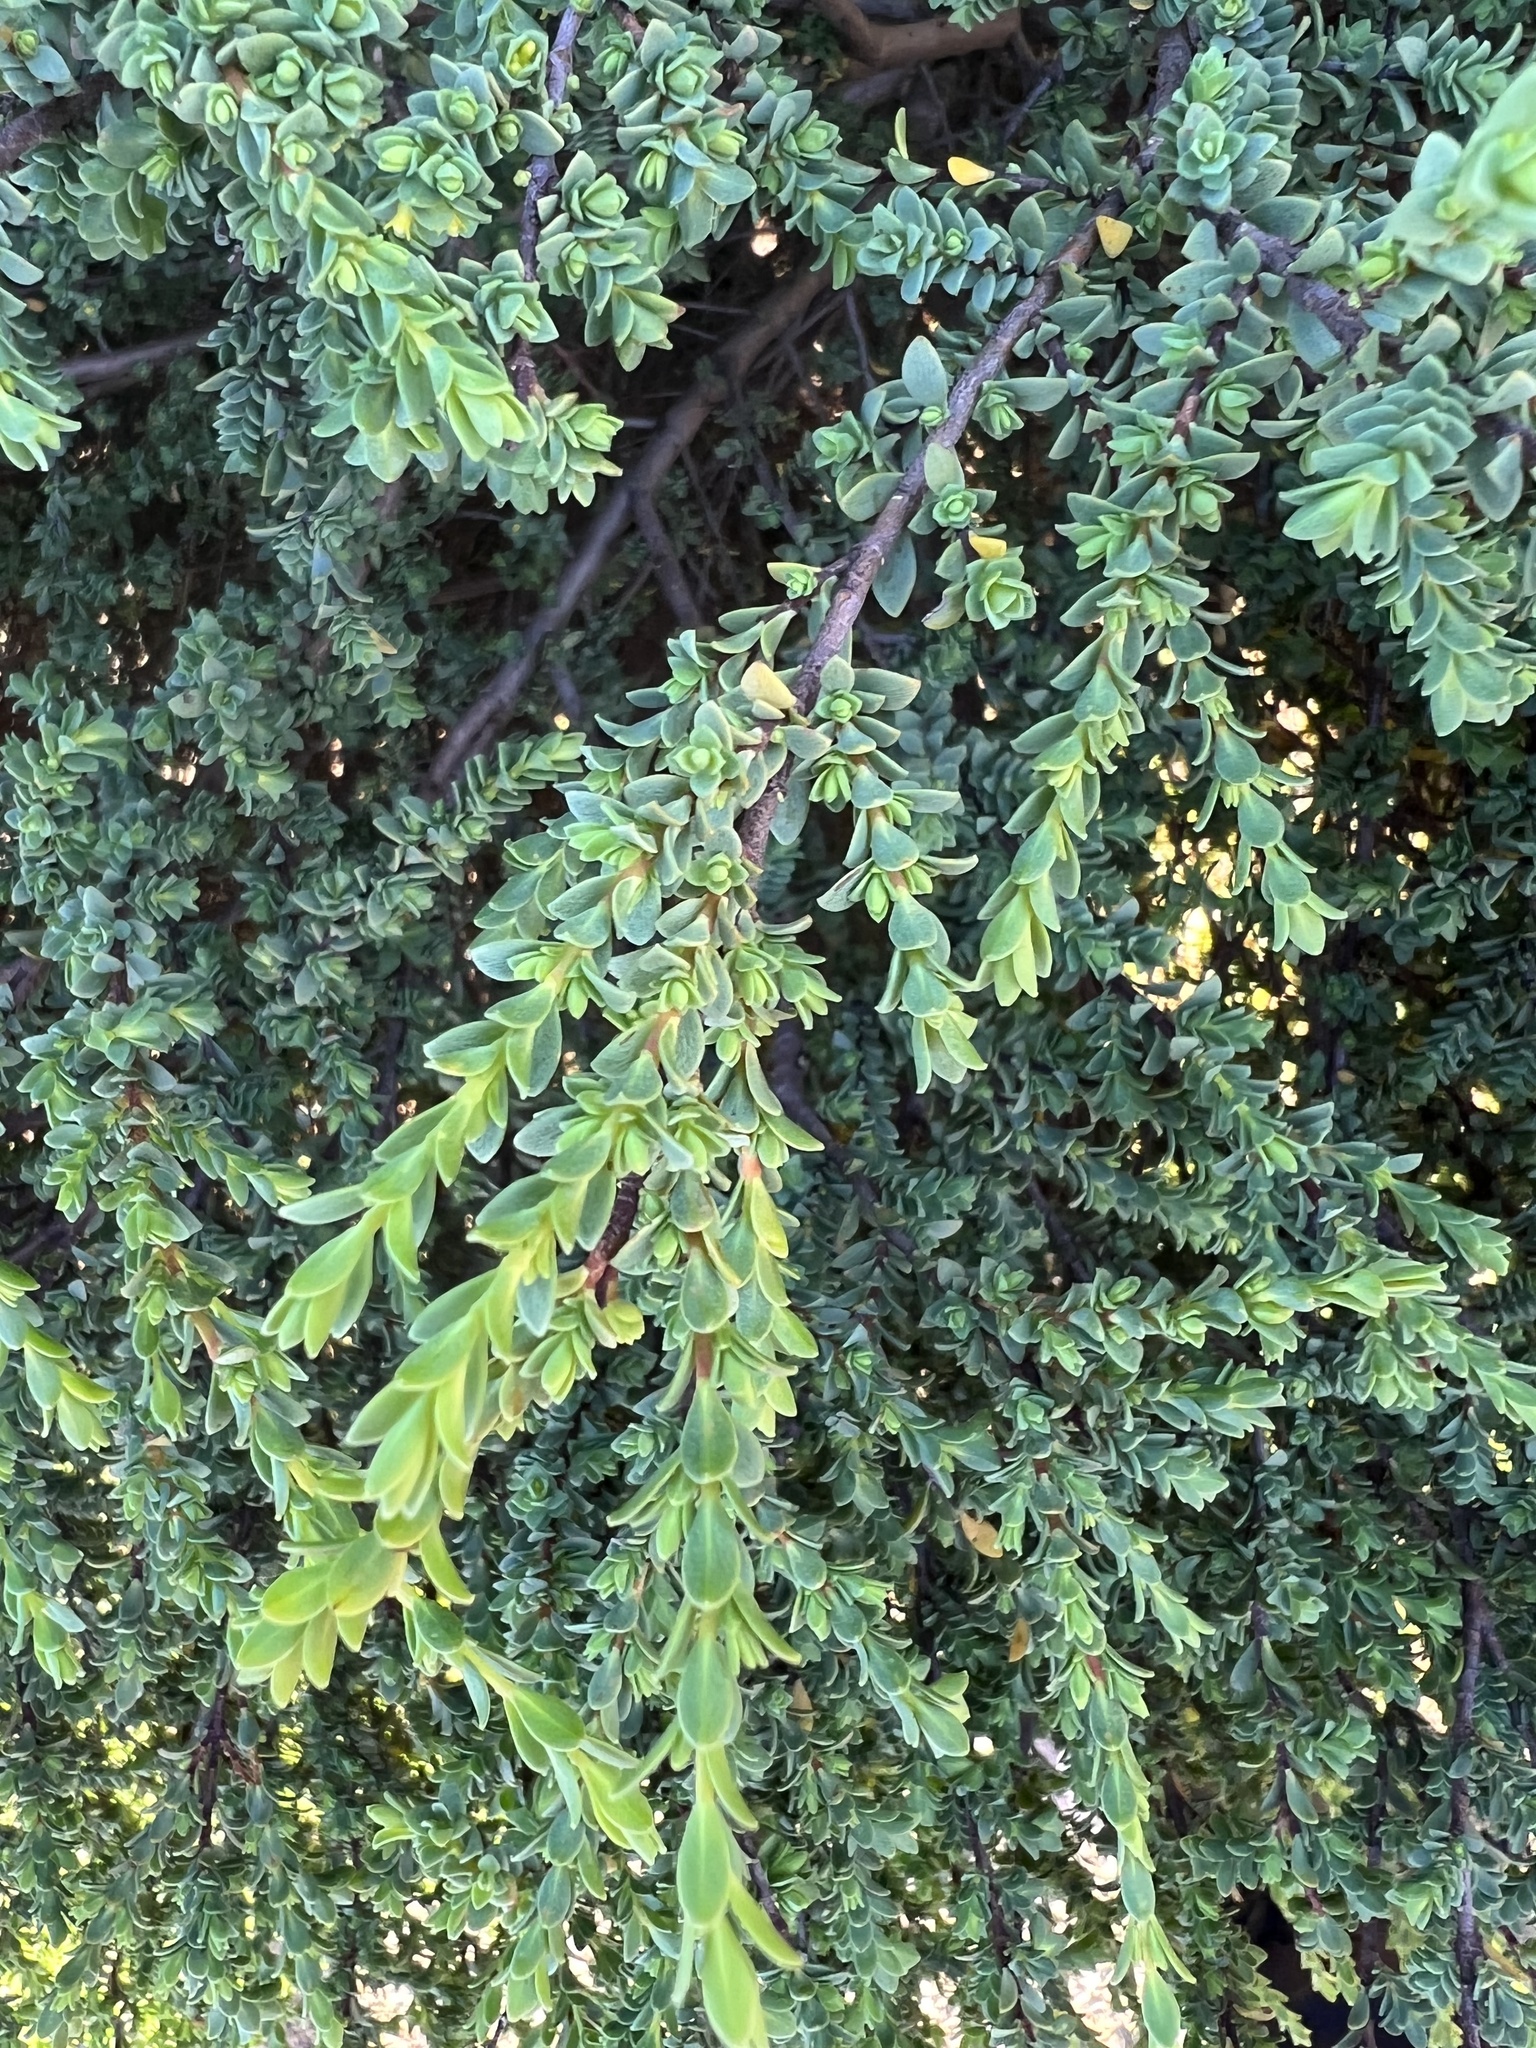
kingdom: Plantae
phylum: Tracheophyta
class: Magnoliopsida
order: Malvales
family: Thymelaeaceae
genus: Pimelea
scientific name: Pimelea serpyllifolia
